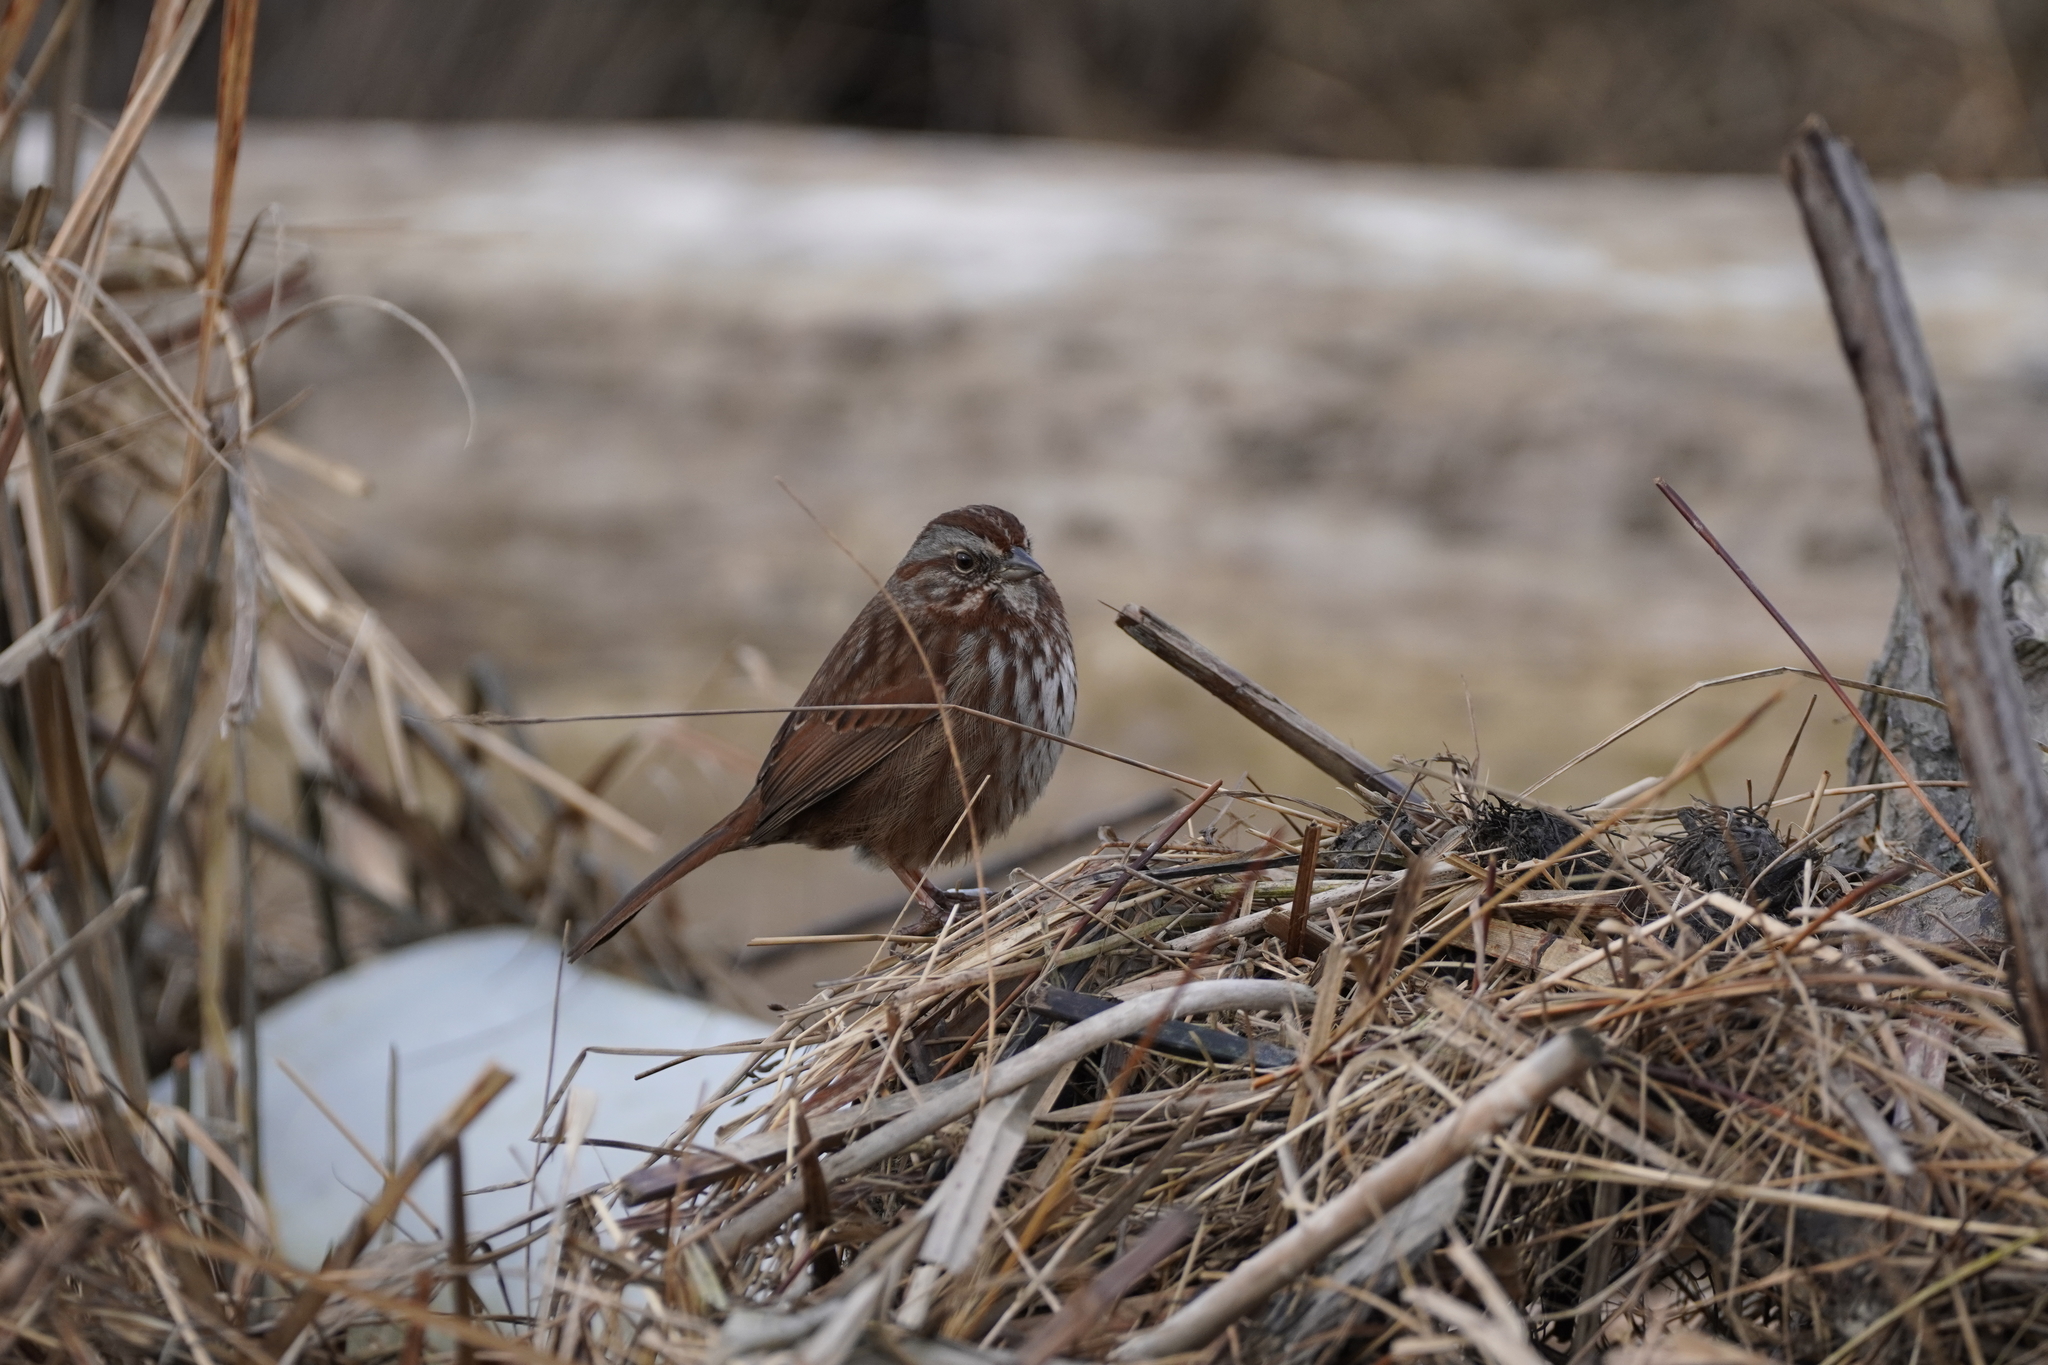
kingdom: Animalia
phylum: Chordata
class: Aves
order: Passeriformes
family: Passerellidae
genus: Melospiza
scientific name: Melospiza melodia
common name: Song sparrow
